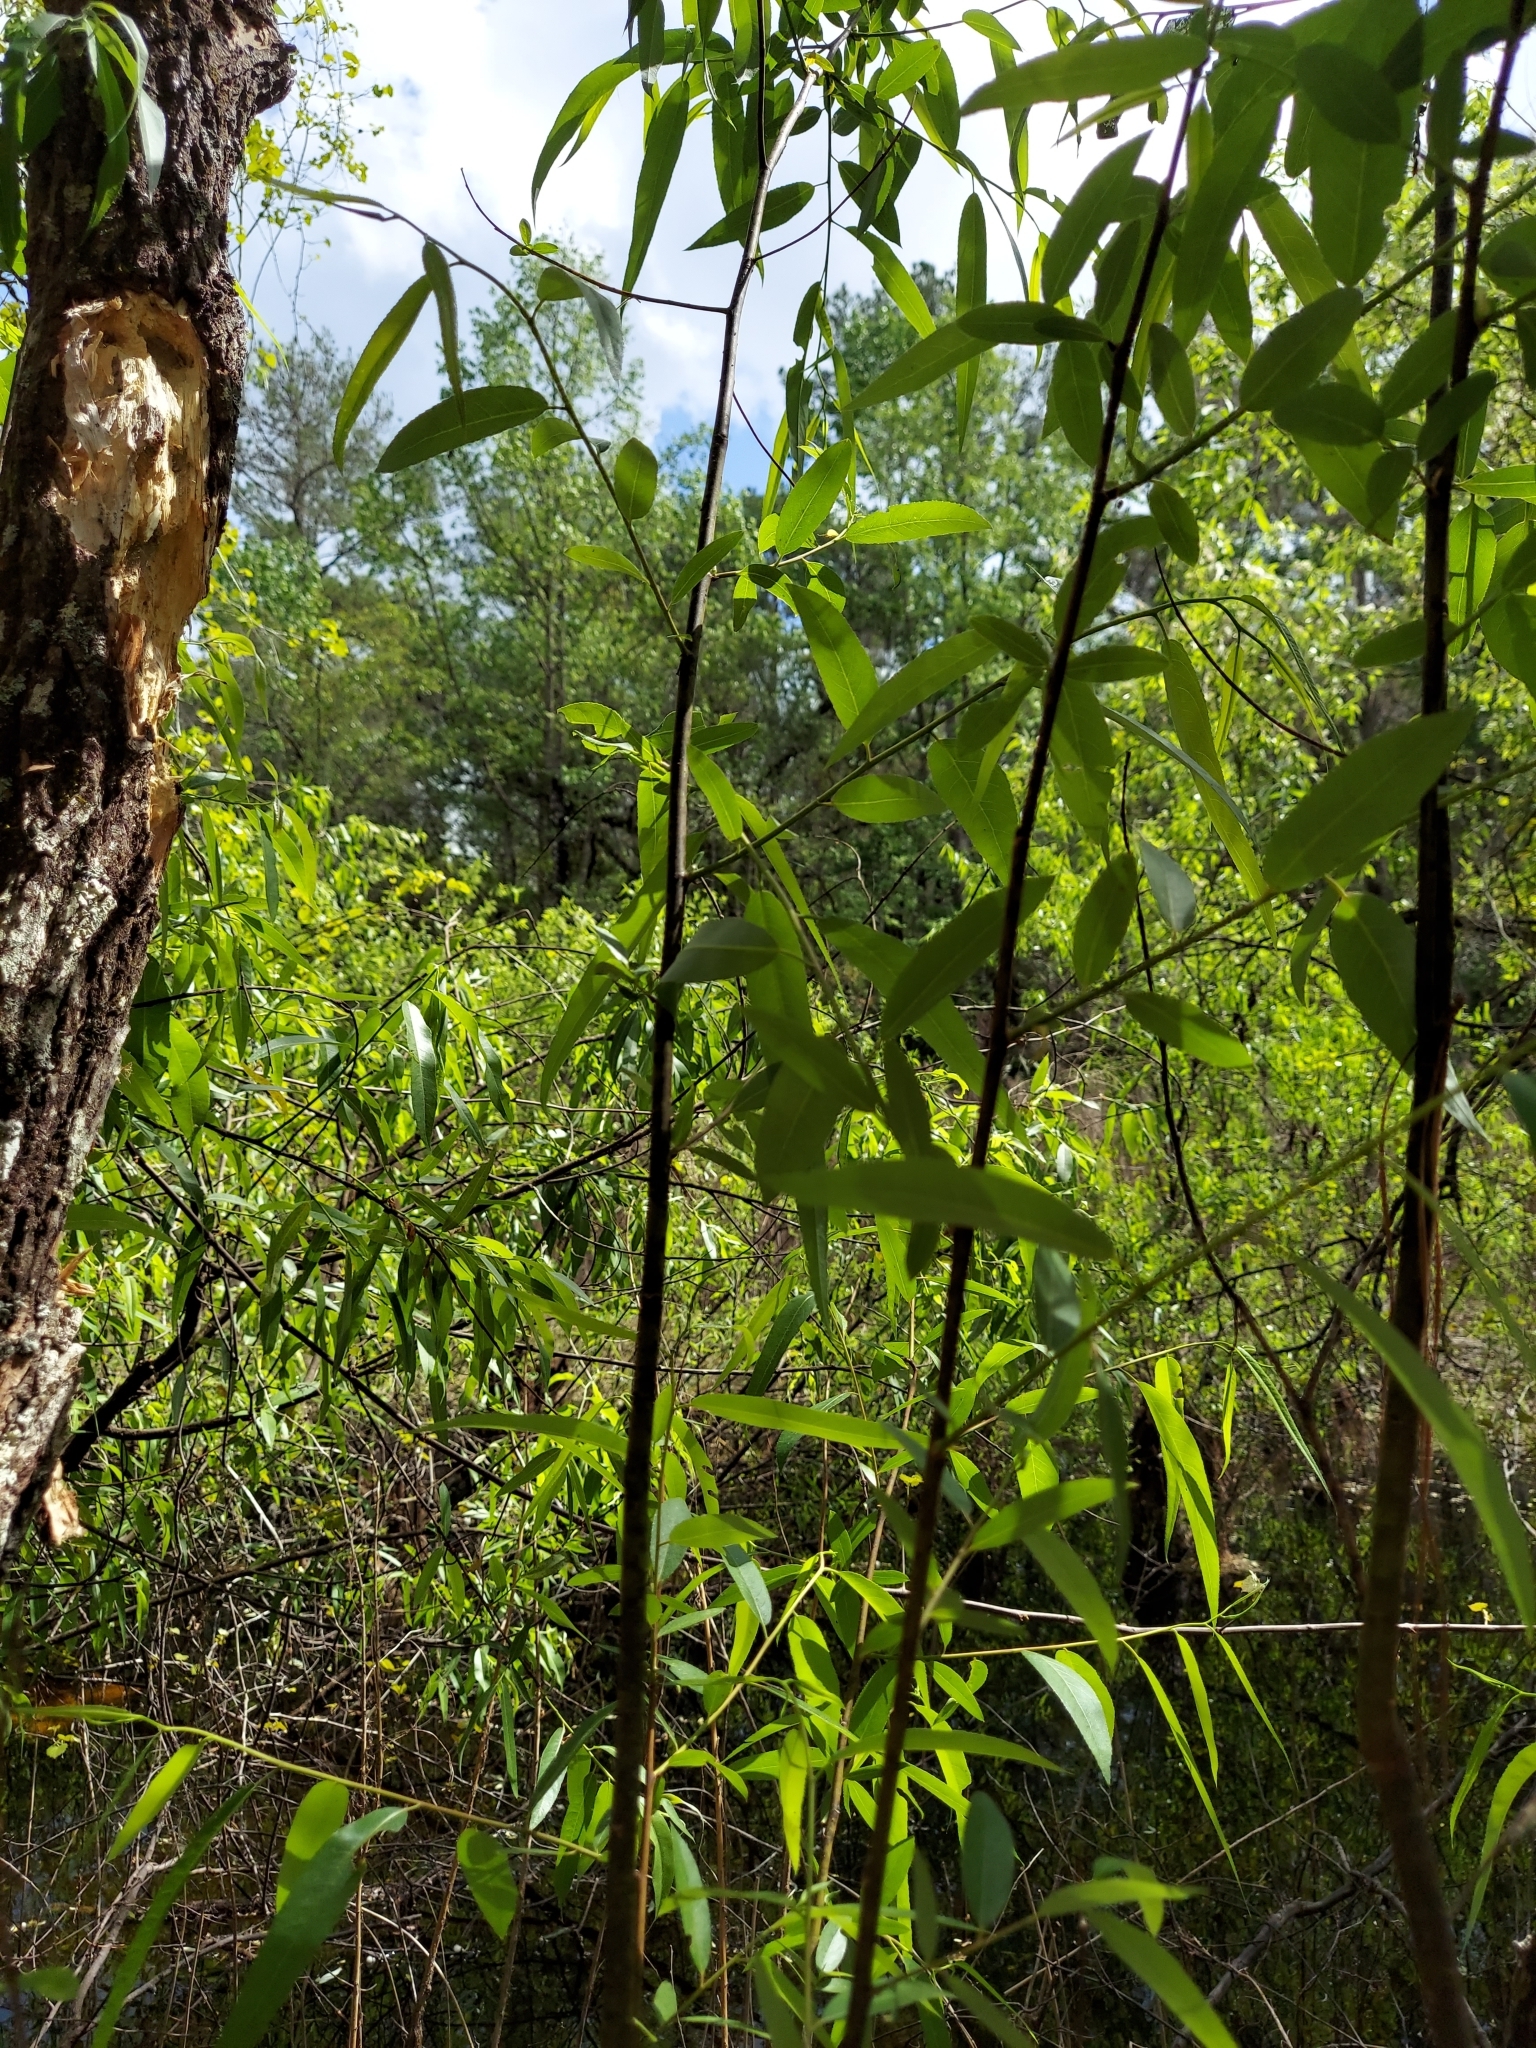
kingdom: Plantae
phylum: Tracheophyta
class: Magnoliopsida
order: Malpighiales
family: Salicaceae
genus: Salix
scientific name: Salix caroliniana
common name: Carolina willow
